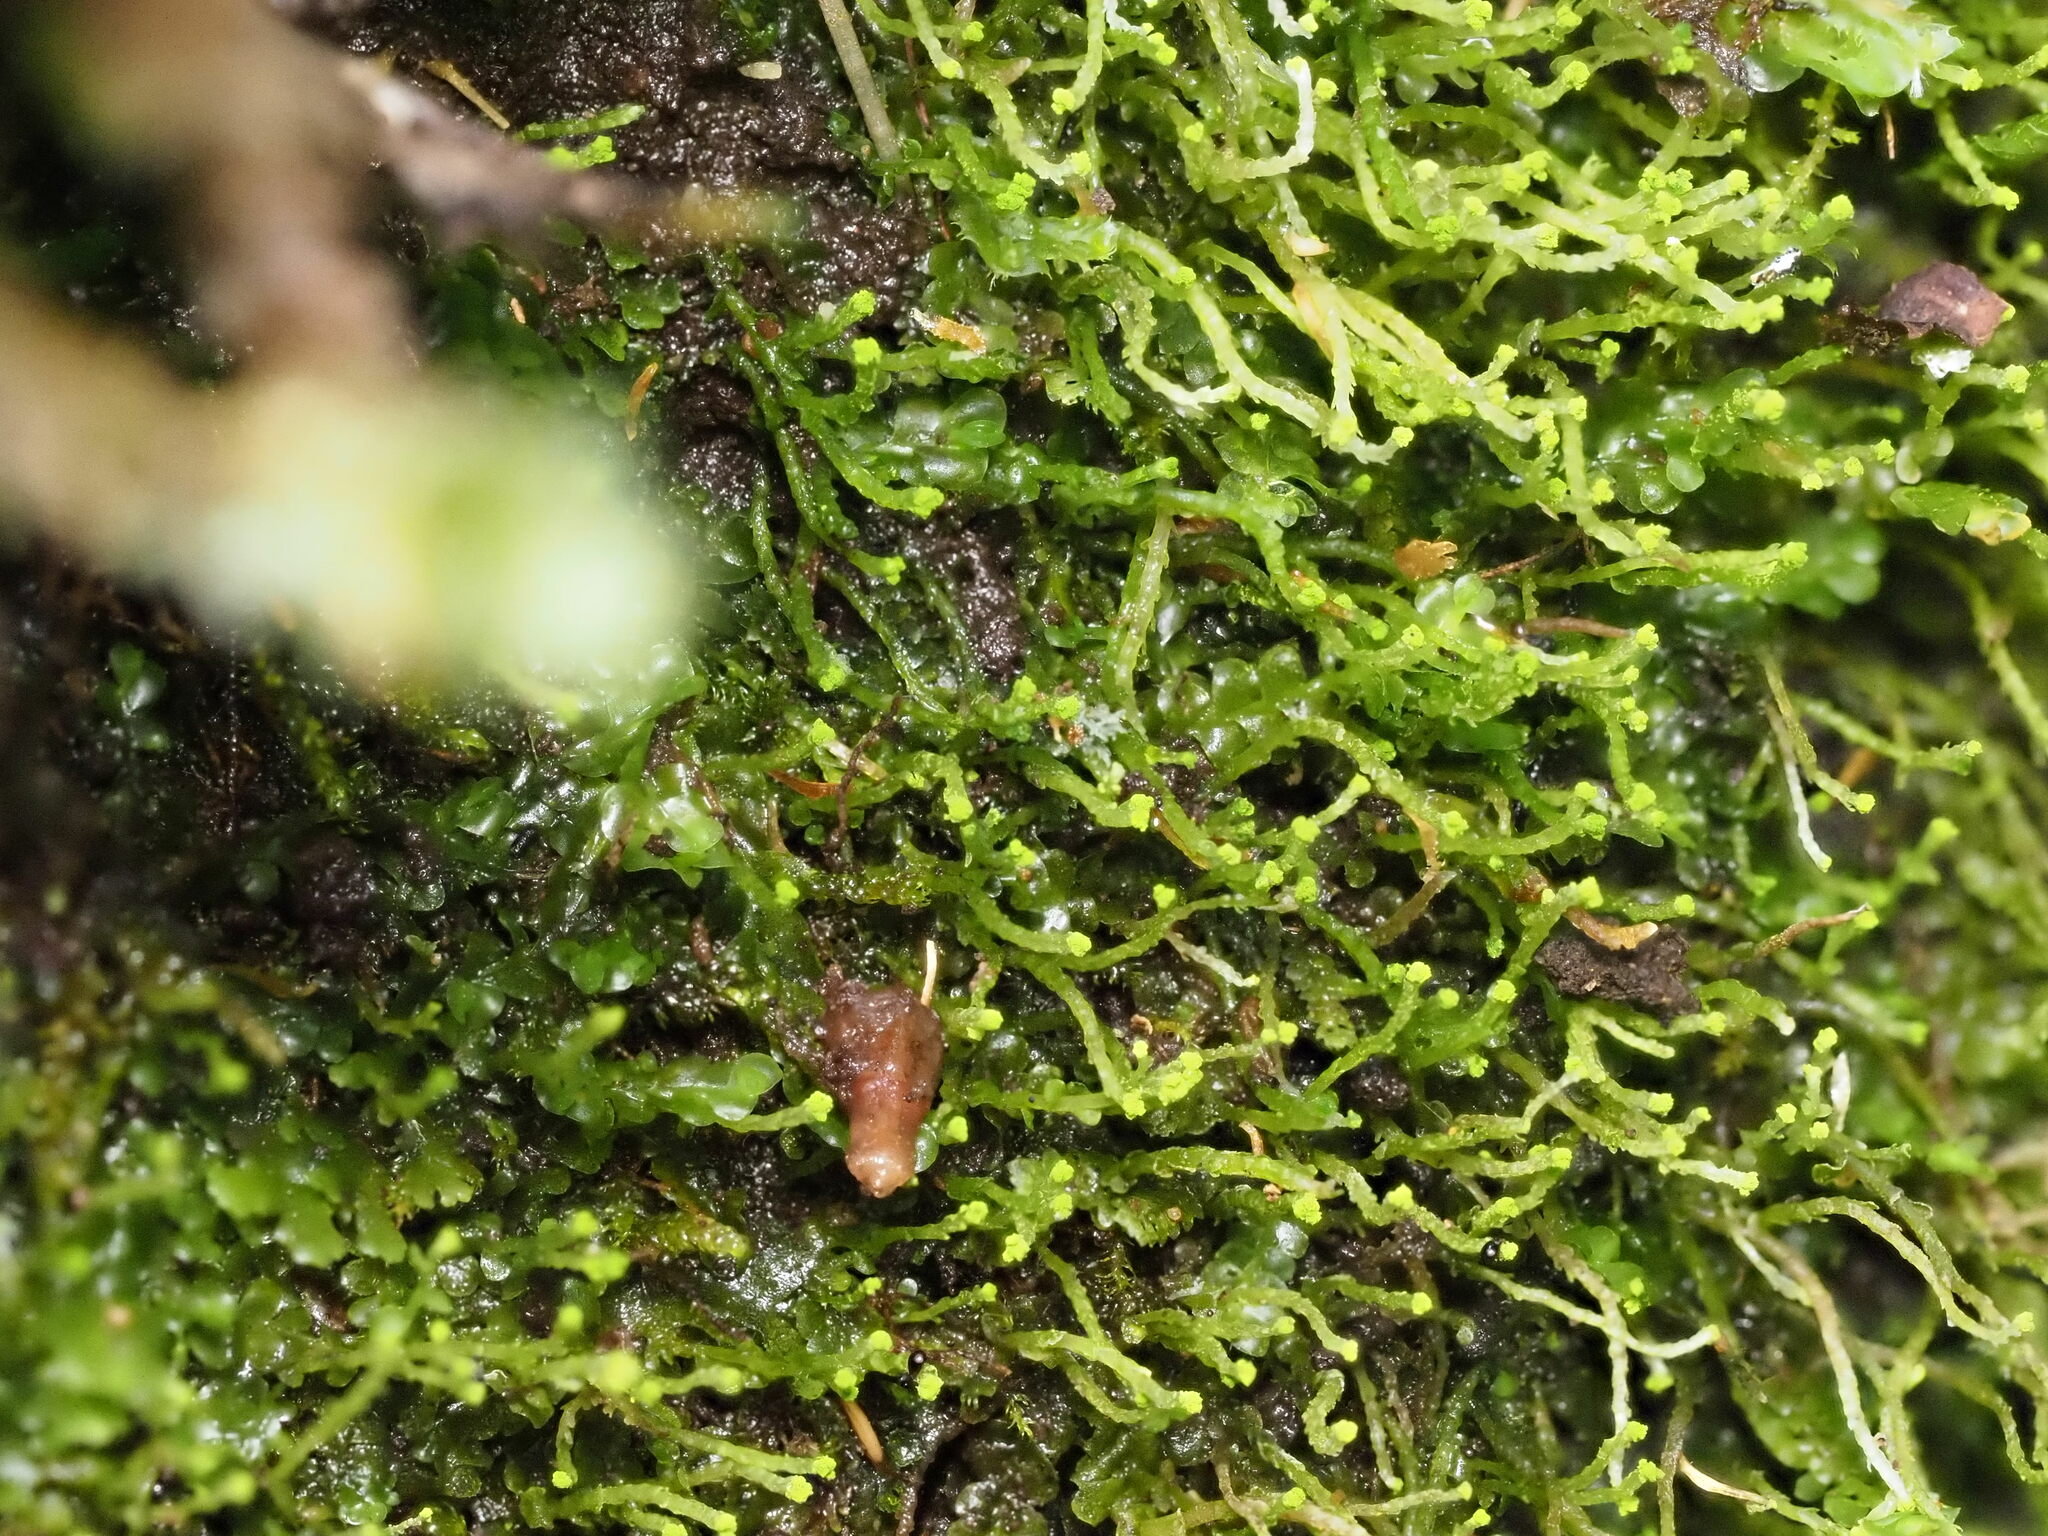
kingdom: Plantae
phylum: Marchantiophyta
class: Jungermanniopsida
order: Jungermanniales
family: Cephaloziaceae
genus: Odontoschisma
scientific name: Odontoschisma denudatum
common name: Matchstick flapwort
